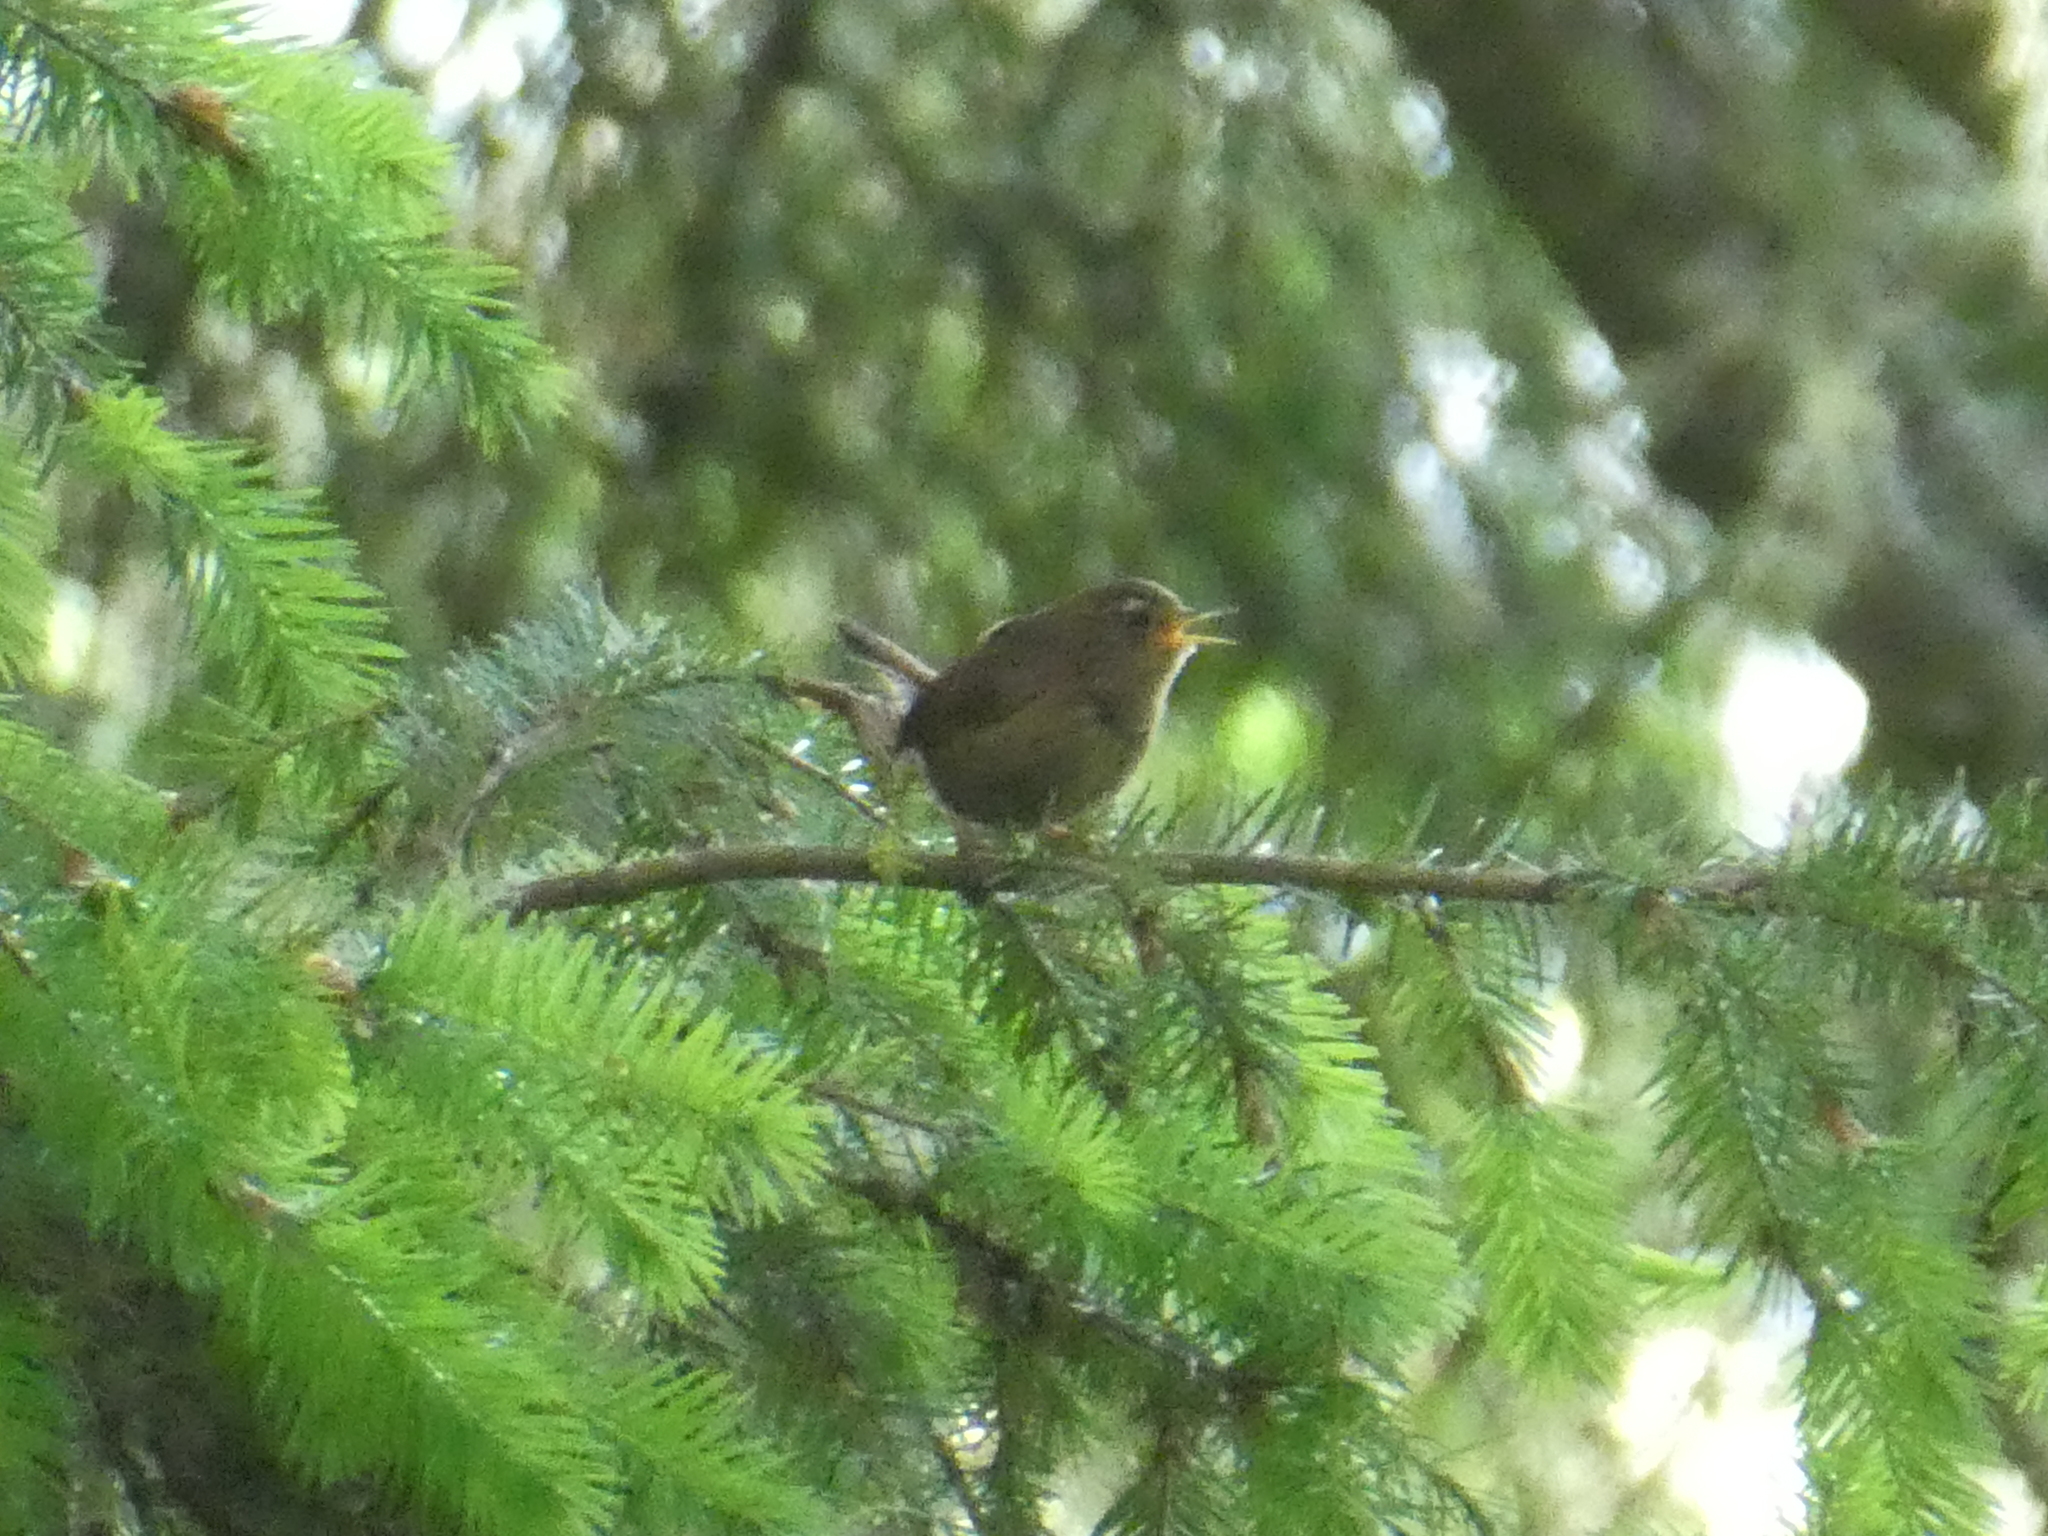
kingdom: Animalia
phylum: Chordata
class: Aves
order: Passeriformes
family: Troglodytidae
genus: Troglodytes
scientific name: Troglodytes pacificus
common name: Pacific wren
